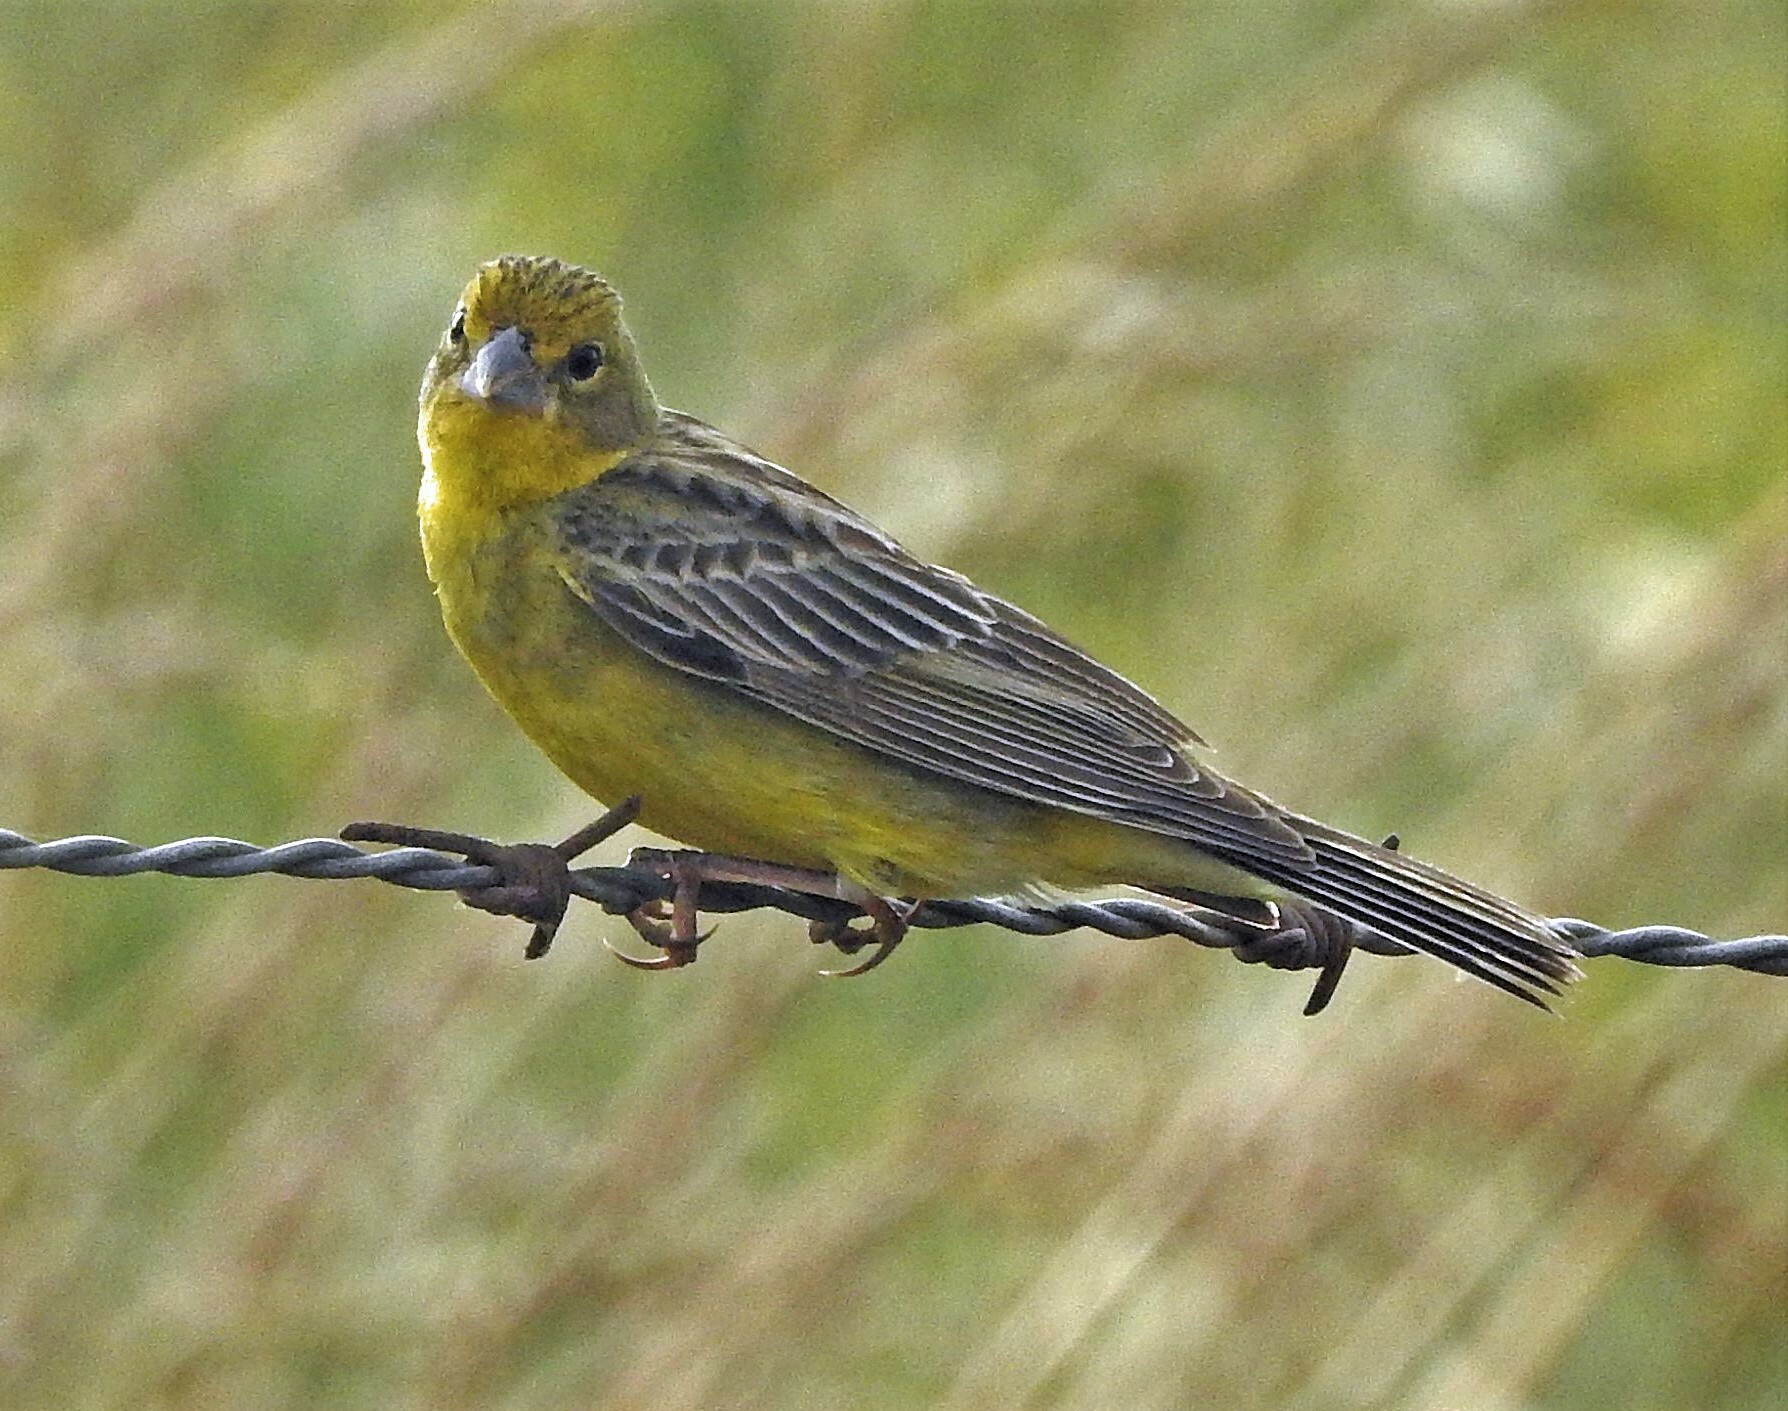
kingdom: Animalia
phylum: Chordata
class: Aves
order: Passeriformes
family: Thraupidae
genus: Sicalis
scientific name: Sicalis luteola
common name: Grassland yellow-finch
